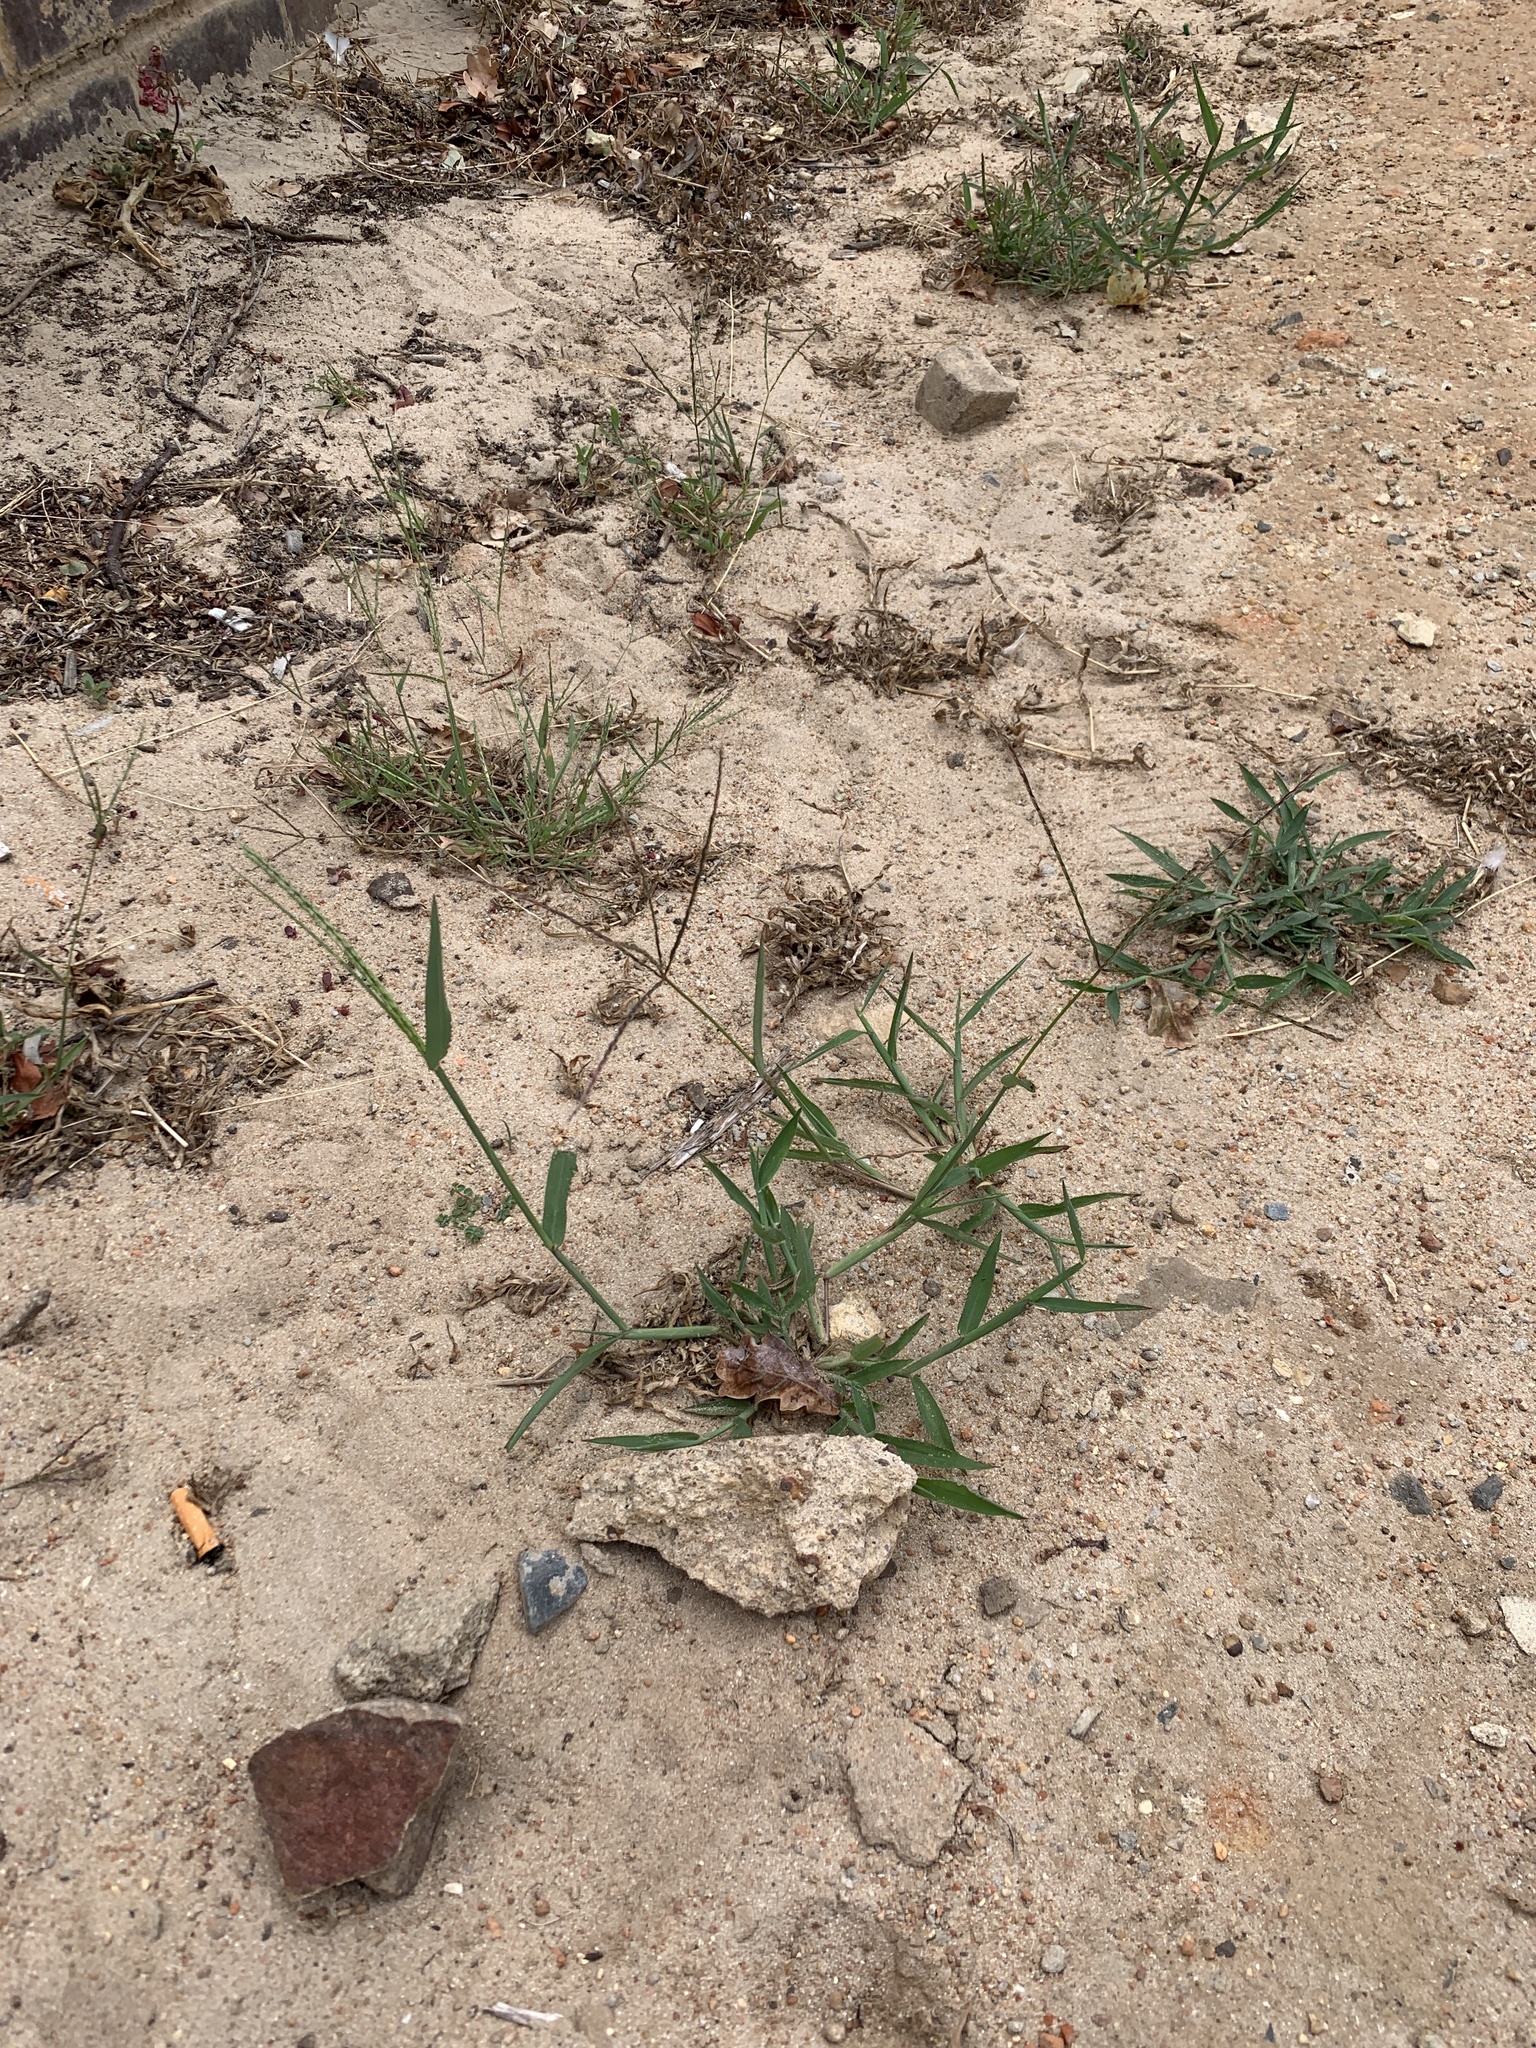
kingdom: Plantae
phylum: Tracheophyta
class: Liliopsida
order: Poales
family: Poaceae
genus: Digitaria
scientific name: Digitaria sanguinalis
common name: Hairy crabgrass
